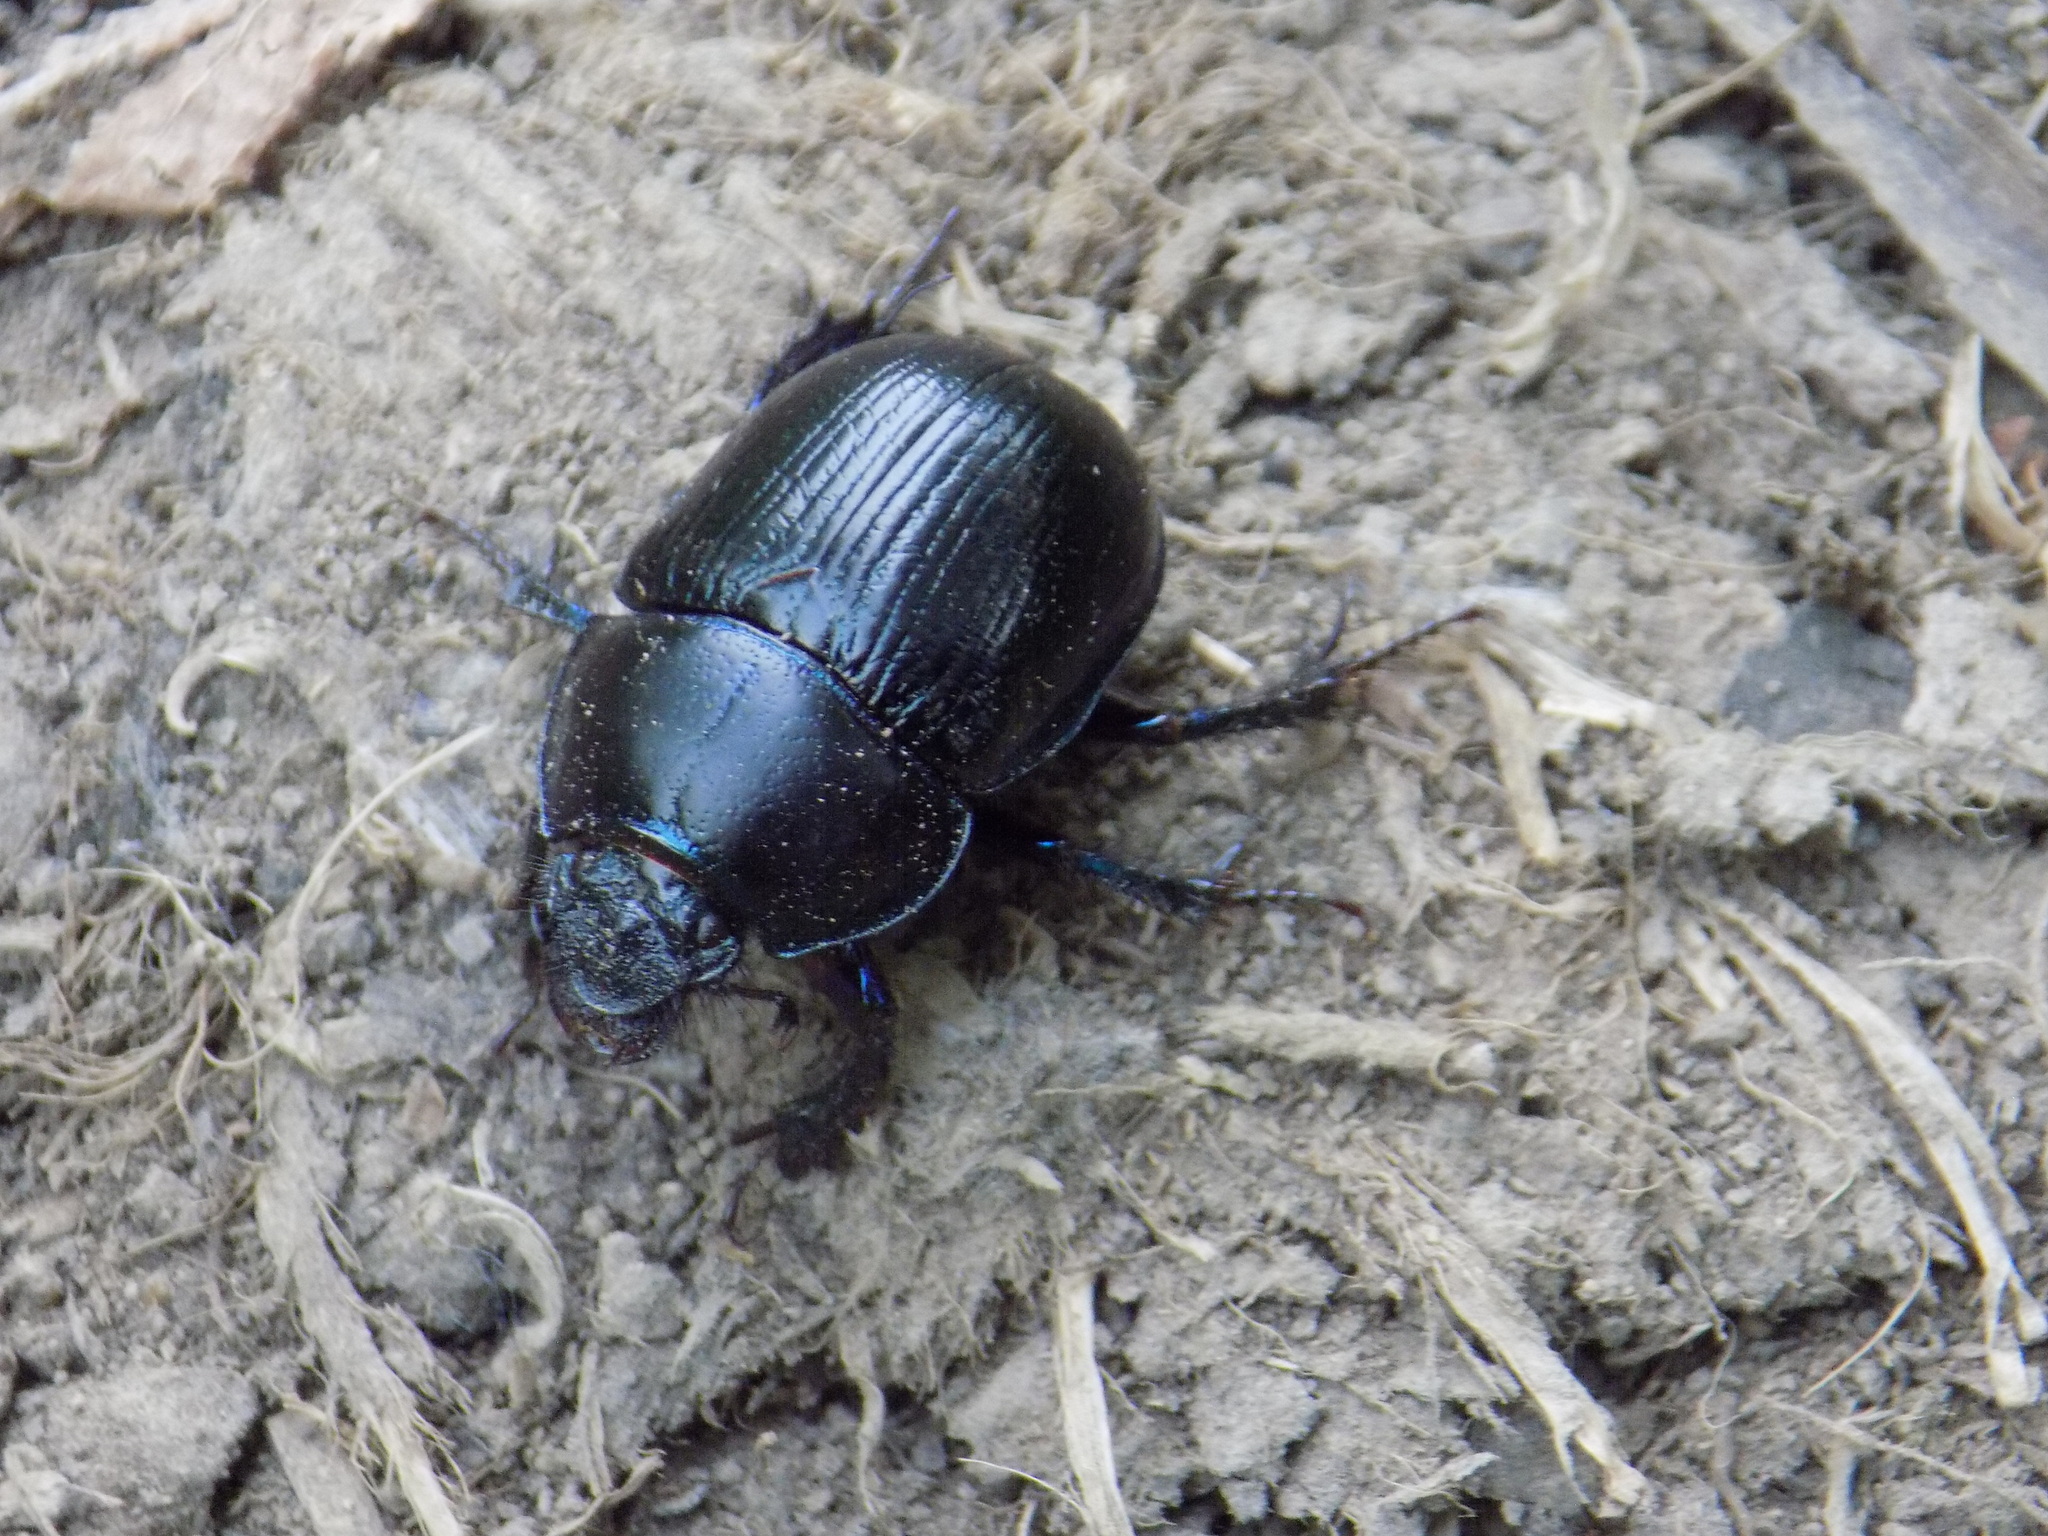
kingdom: Animalia
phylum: Arthropoda
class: Insecta
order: Coleoptera
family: Geotrupidae
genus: Anoplotrupes
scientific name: Anoplotrupes stercorosus
